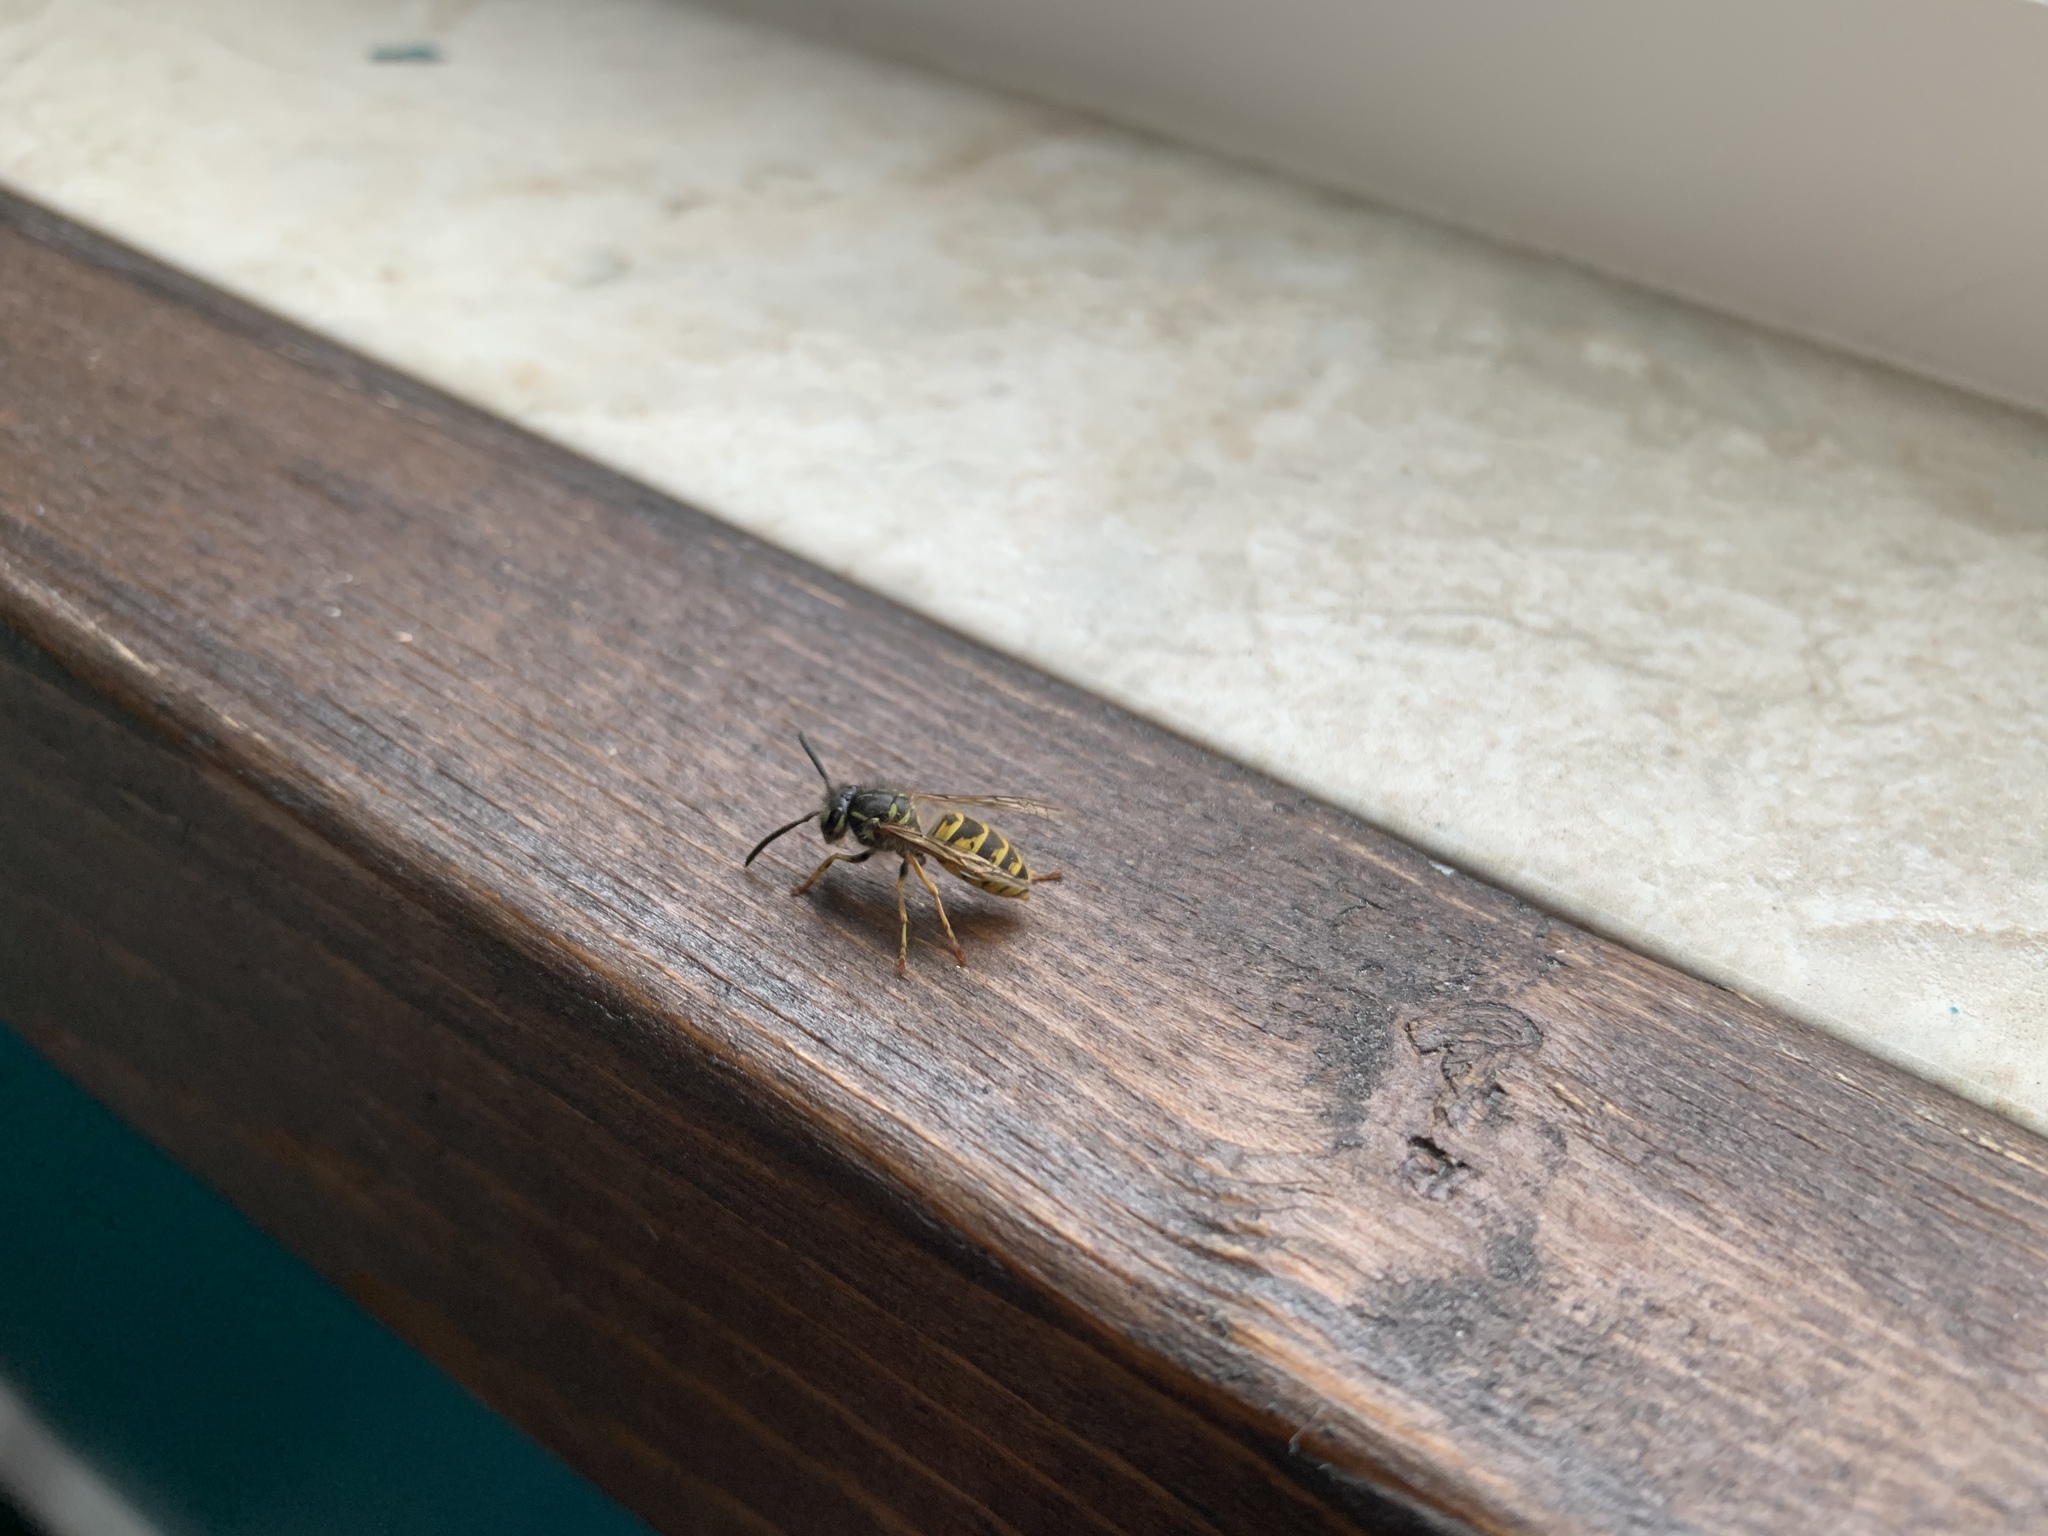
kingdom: Animalia
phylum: Arthropoda
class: Insecta
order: Hymenoptera
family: Vespidae
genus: Vespula
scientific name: Vespula vulgaris
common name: Common wasp
